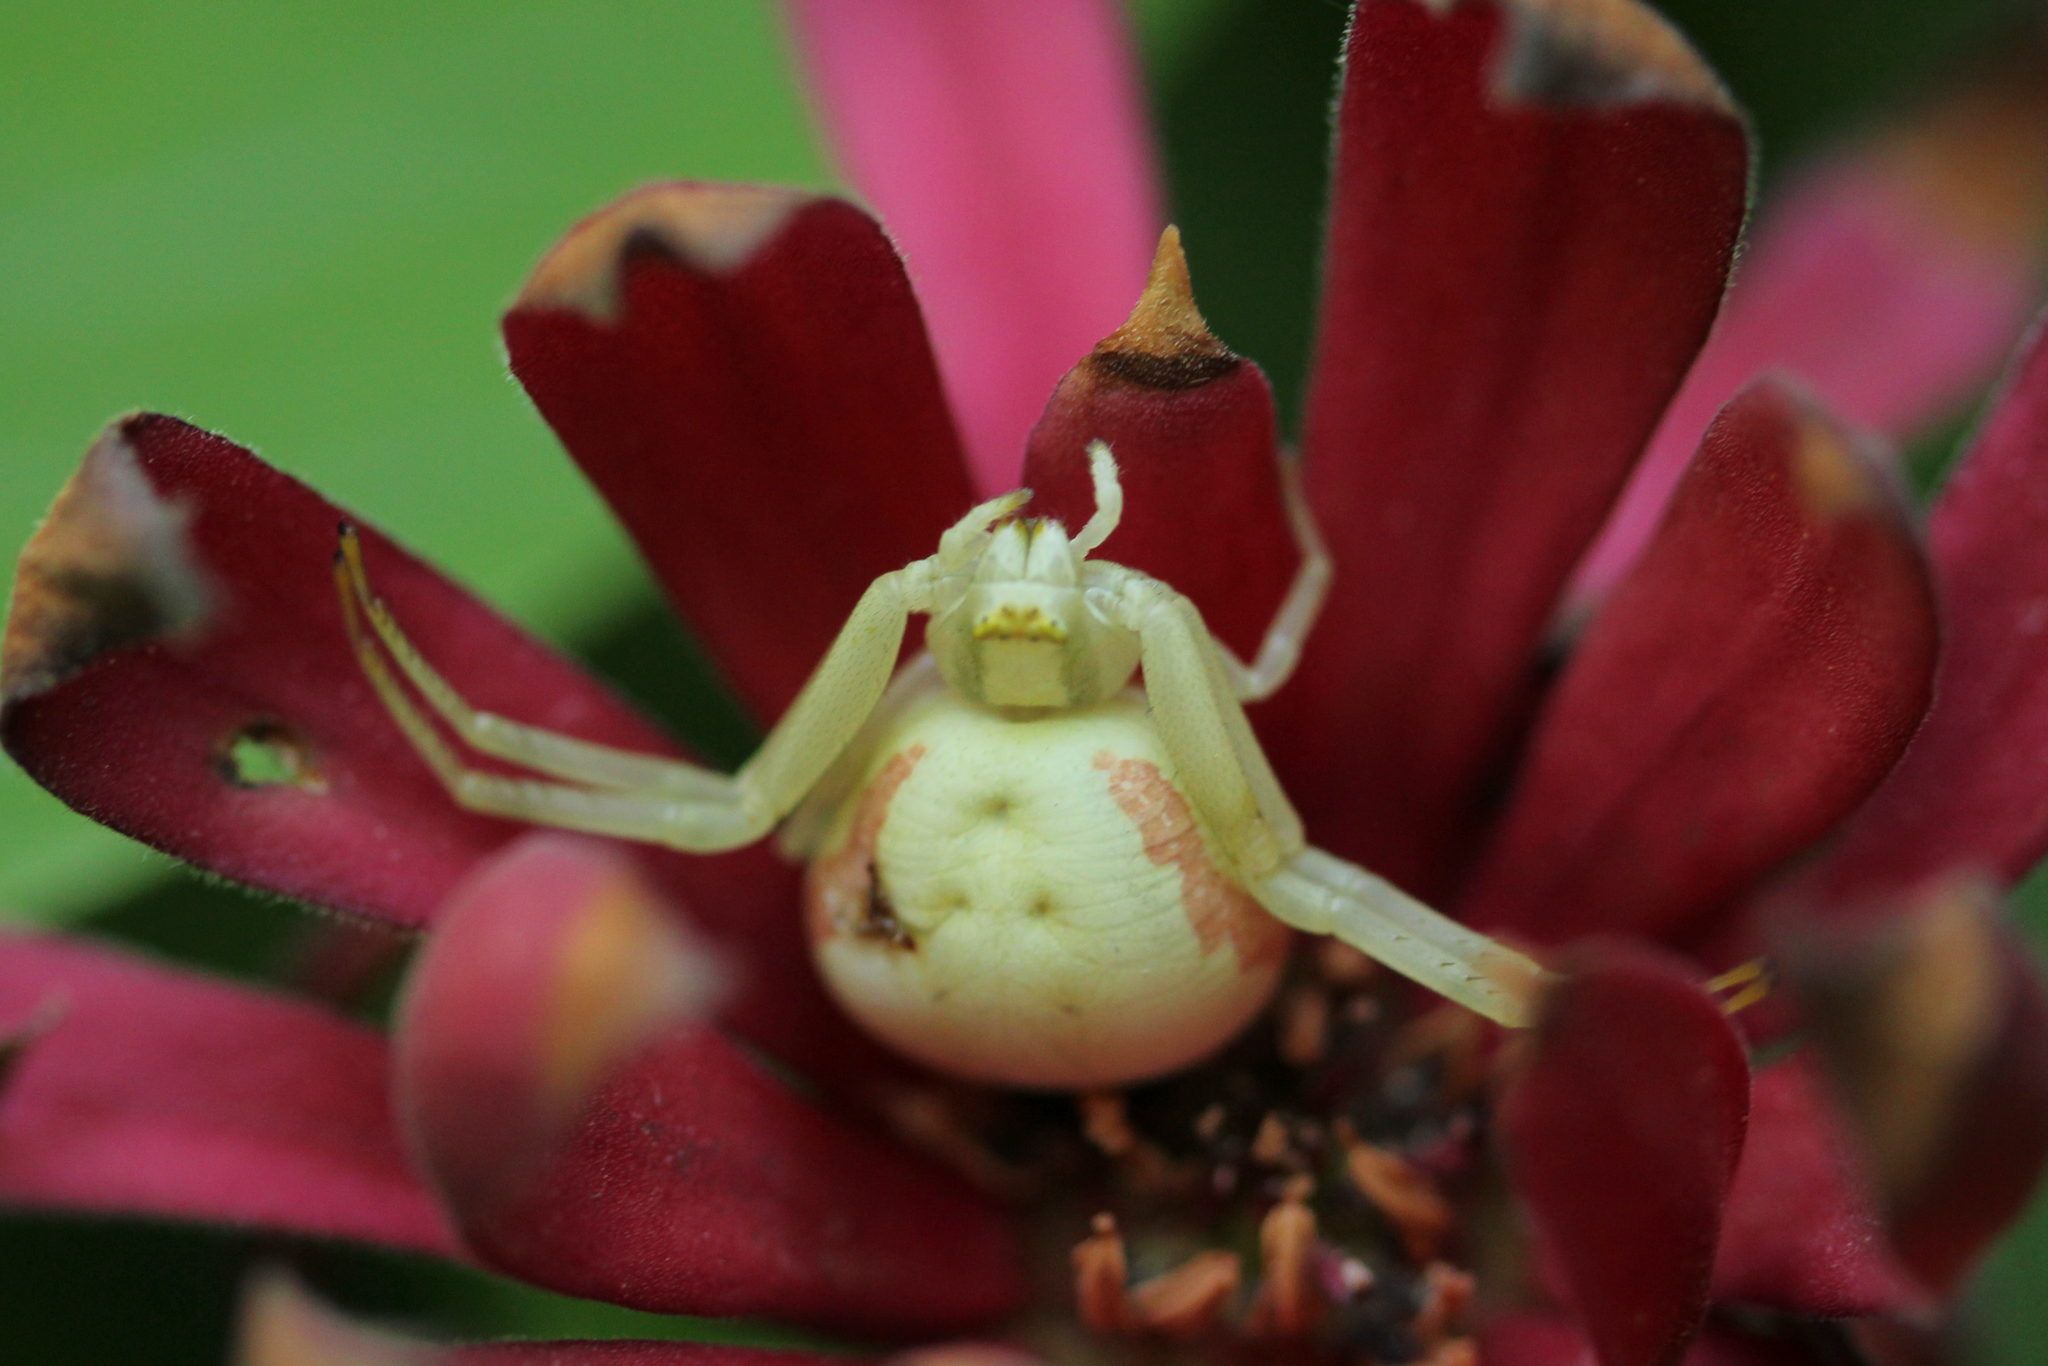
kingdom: Animalia
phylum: Arthropoda
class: Arachnida
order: Araneae
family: Thomisidae
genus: Misumena
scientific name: Misumena vatia
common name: Goldenrod crab spider
